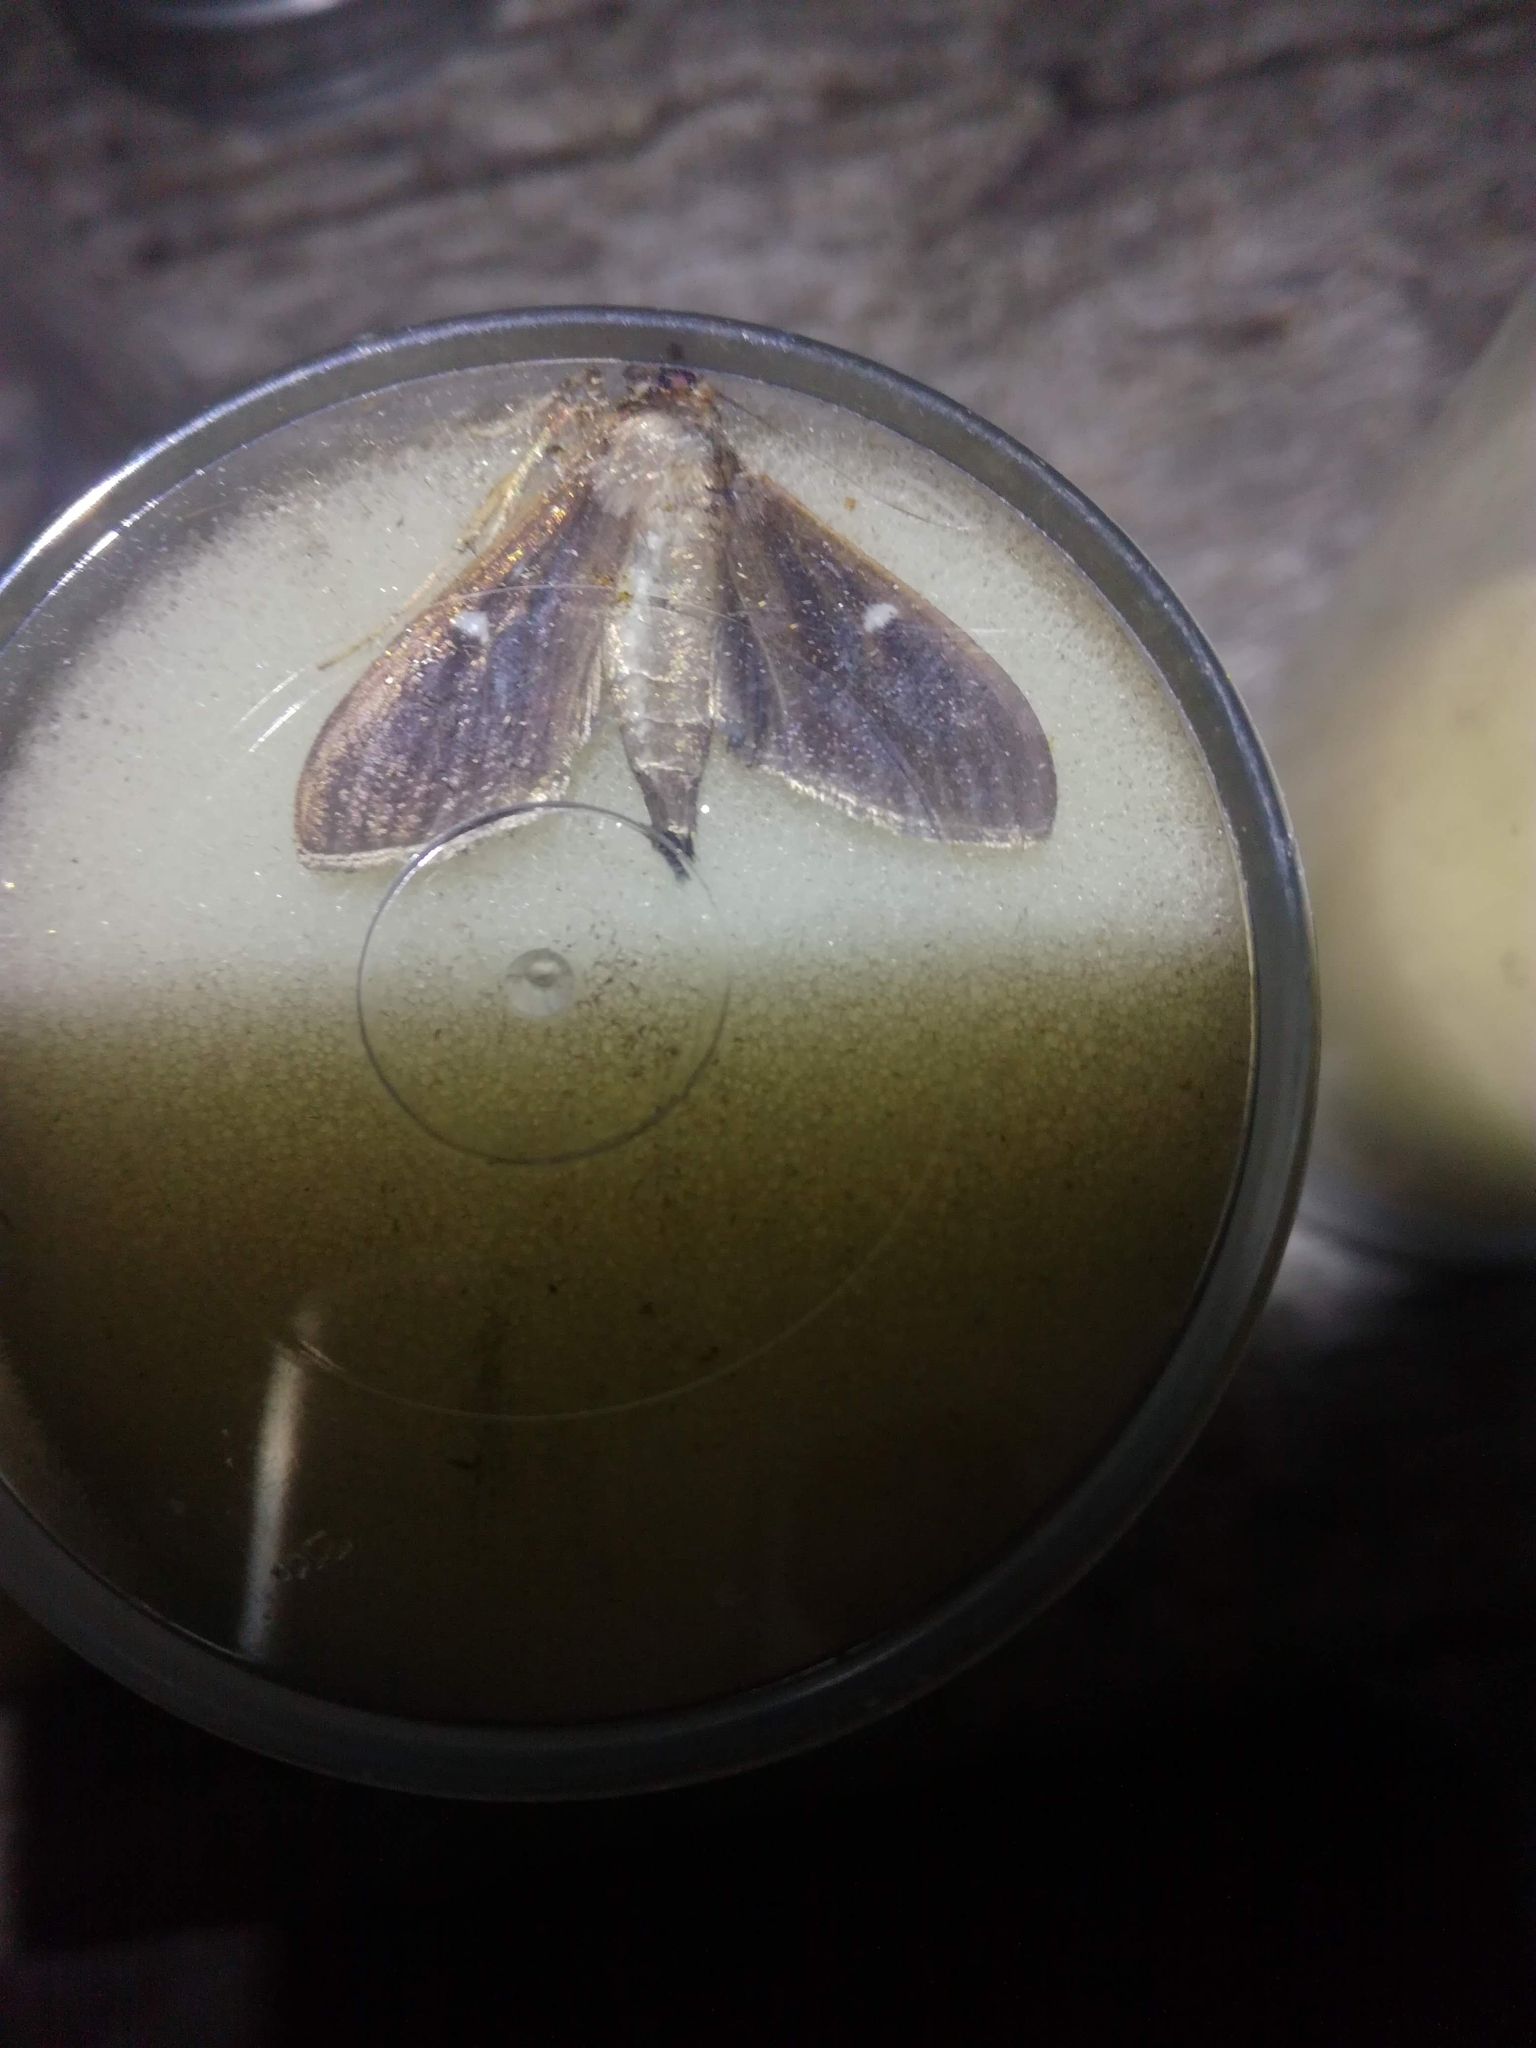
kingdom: Animalia
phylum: Arthropoda
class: Insecta
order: Lepidoptera
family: Crambidae
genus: Cydalima
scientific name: Cydalima perspectalis
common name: Box tree moth
